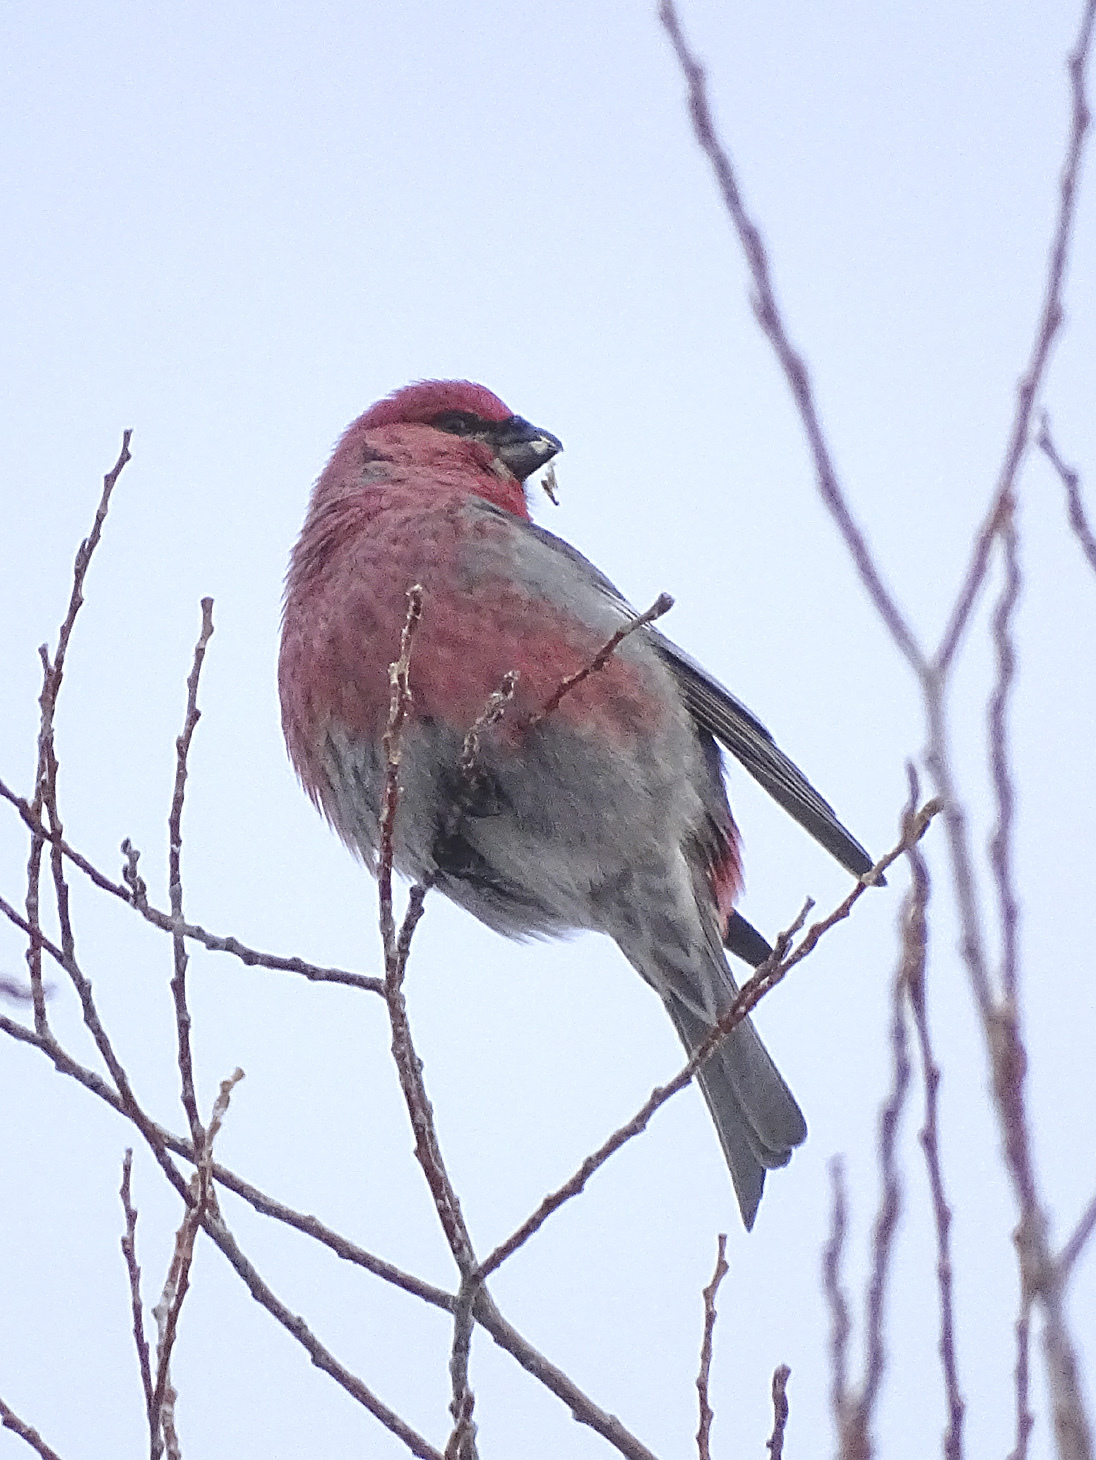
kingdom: Animalia
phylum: Chordata
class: Aves
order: Passeriformes
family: Fringillidae
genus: Pinicola
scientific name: Pinicola enucleator
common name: Pine grosbeak
